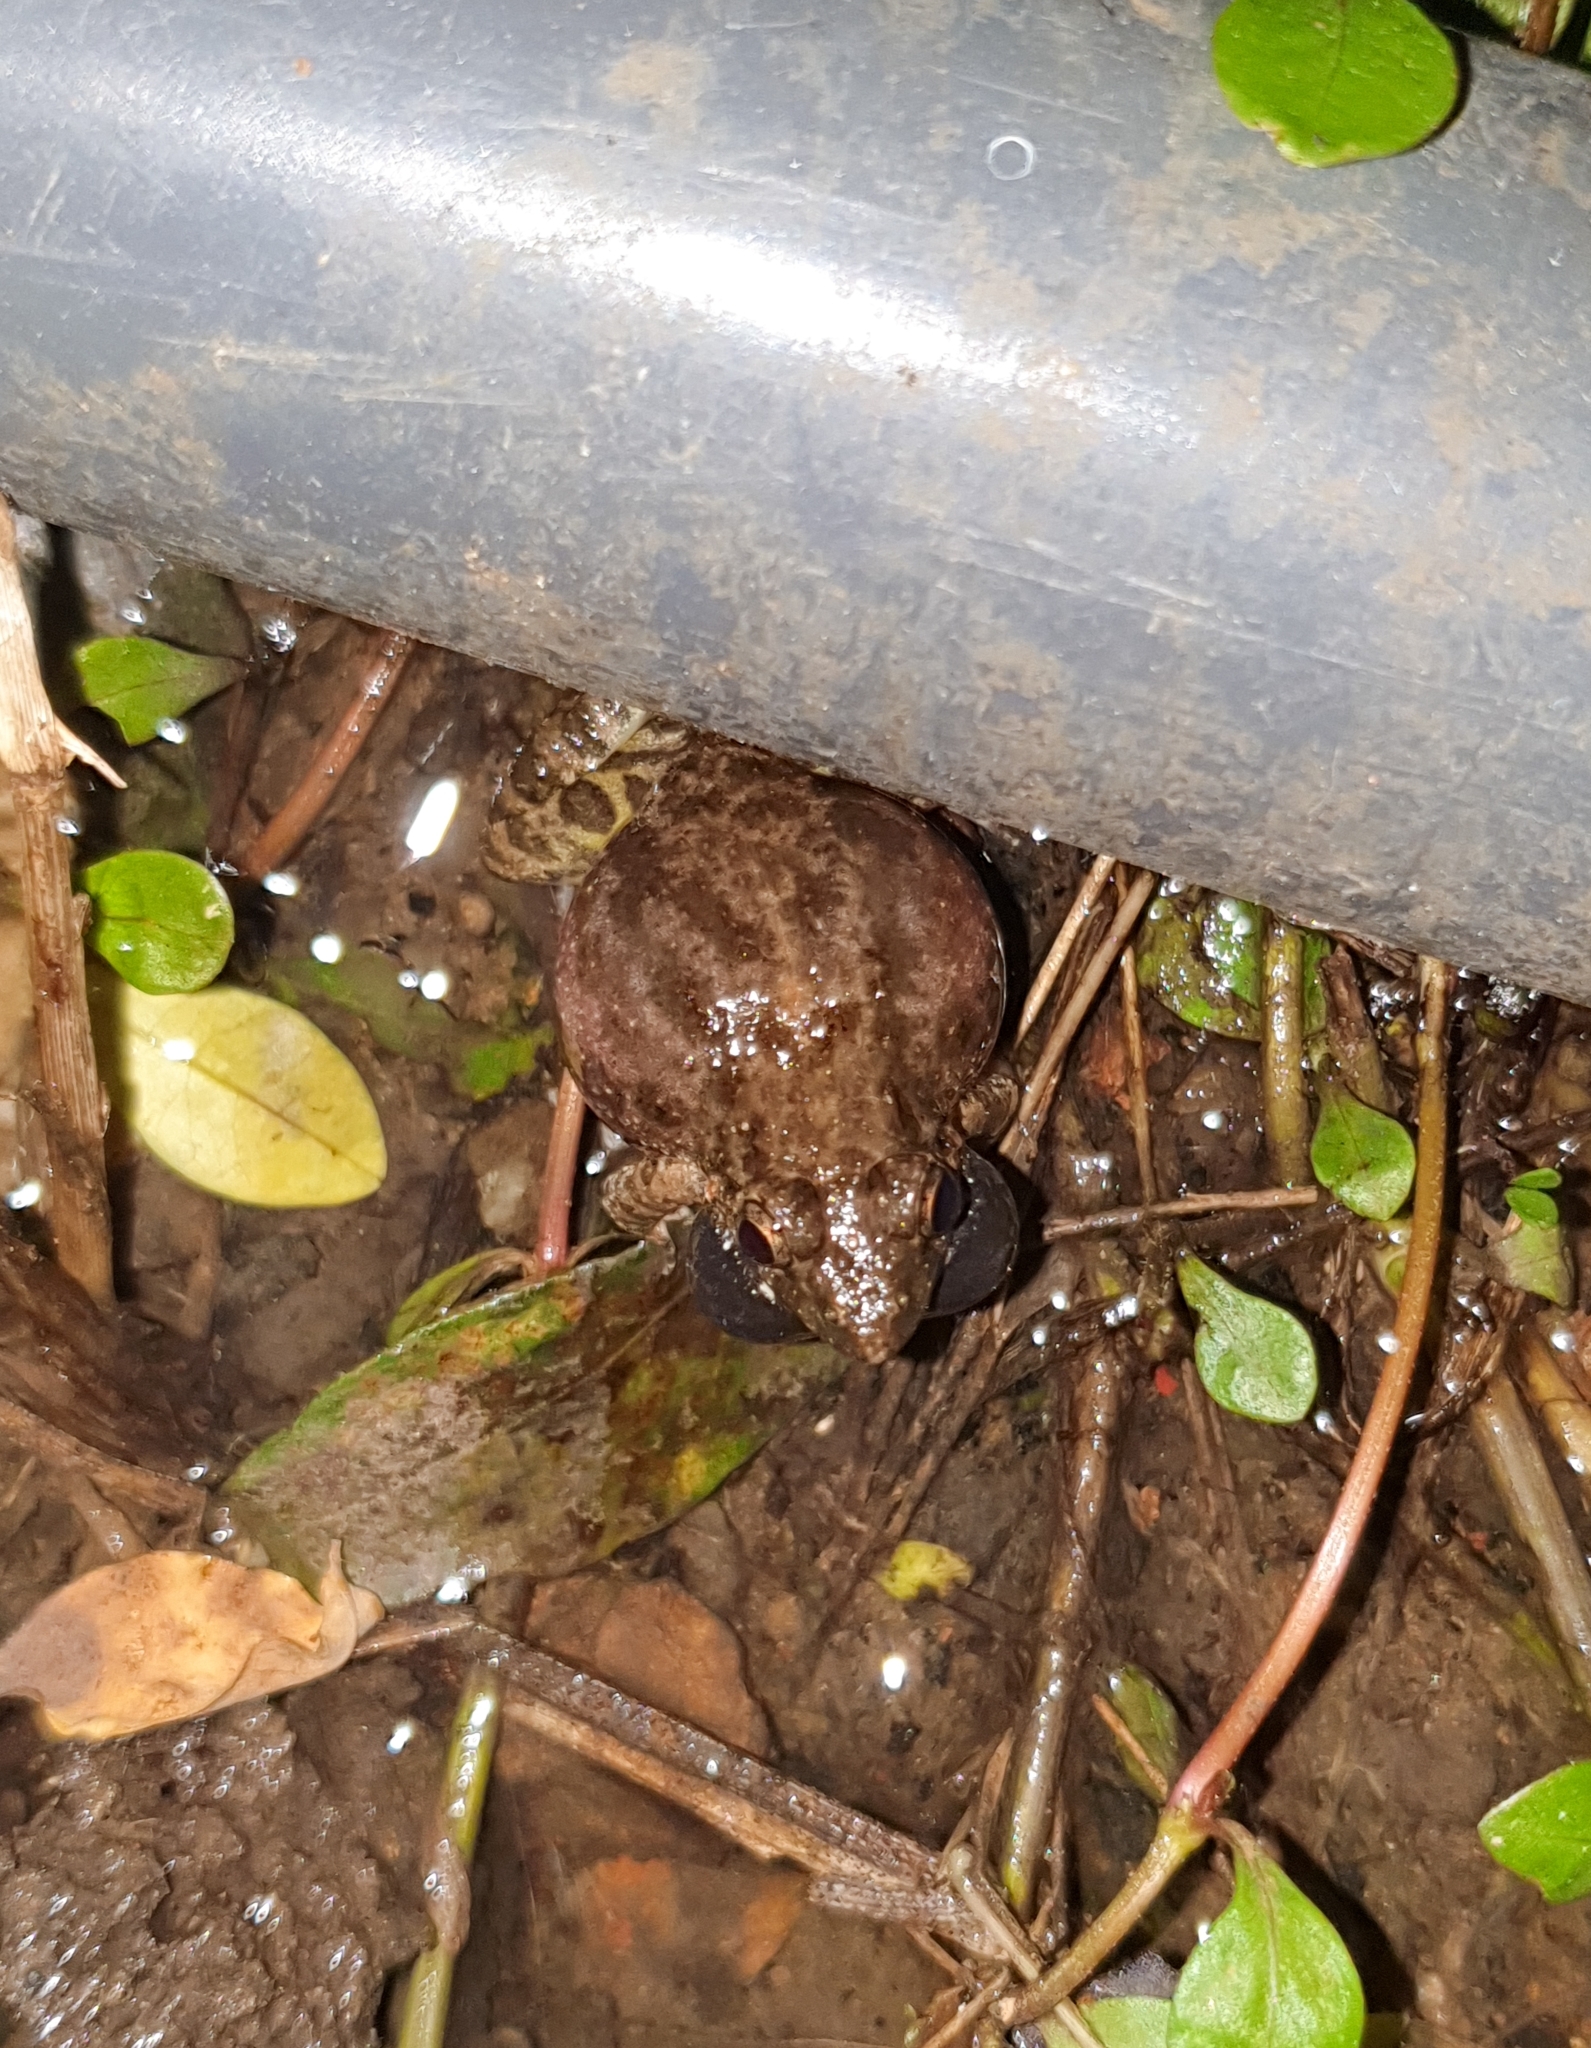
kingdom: Animalia
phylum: Chordata
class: Amphibia
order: Anura
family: Dicroglossidae
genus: Minervarya
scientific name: Minervarya agricola
